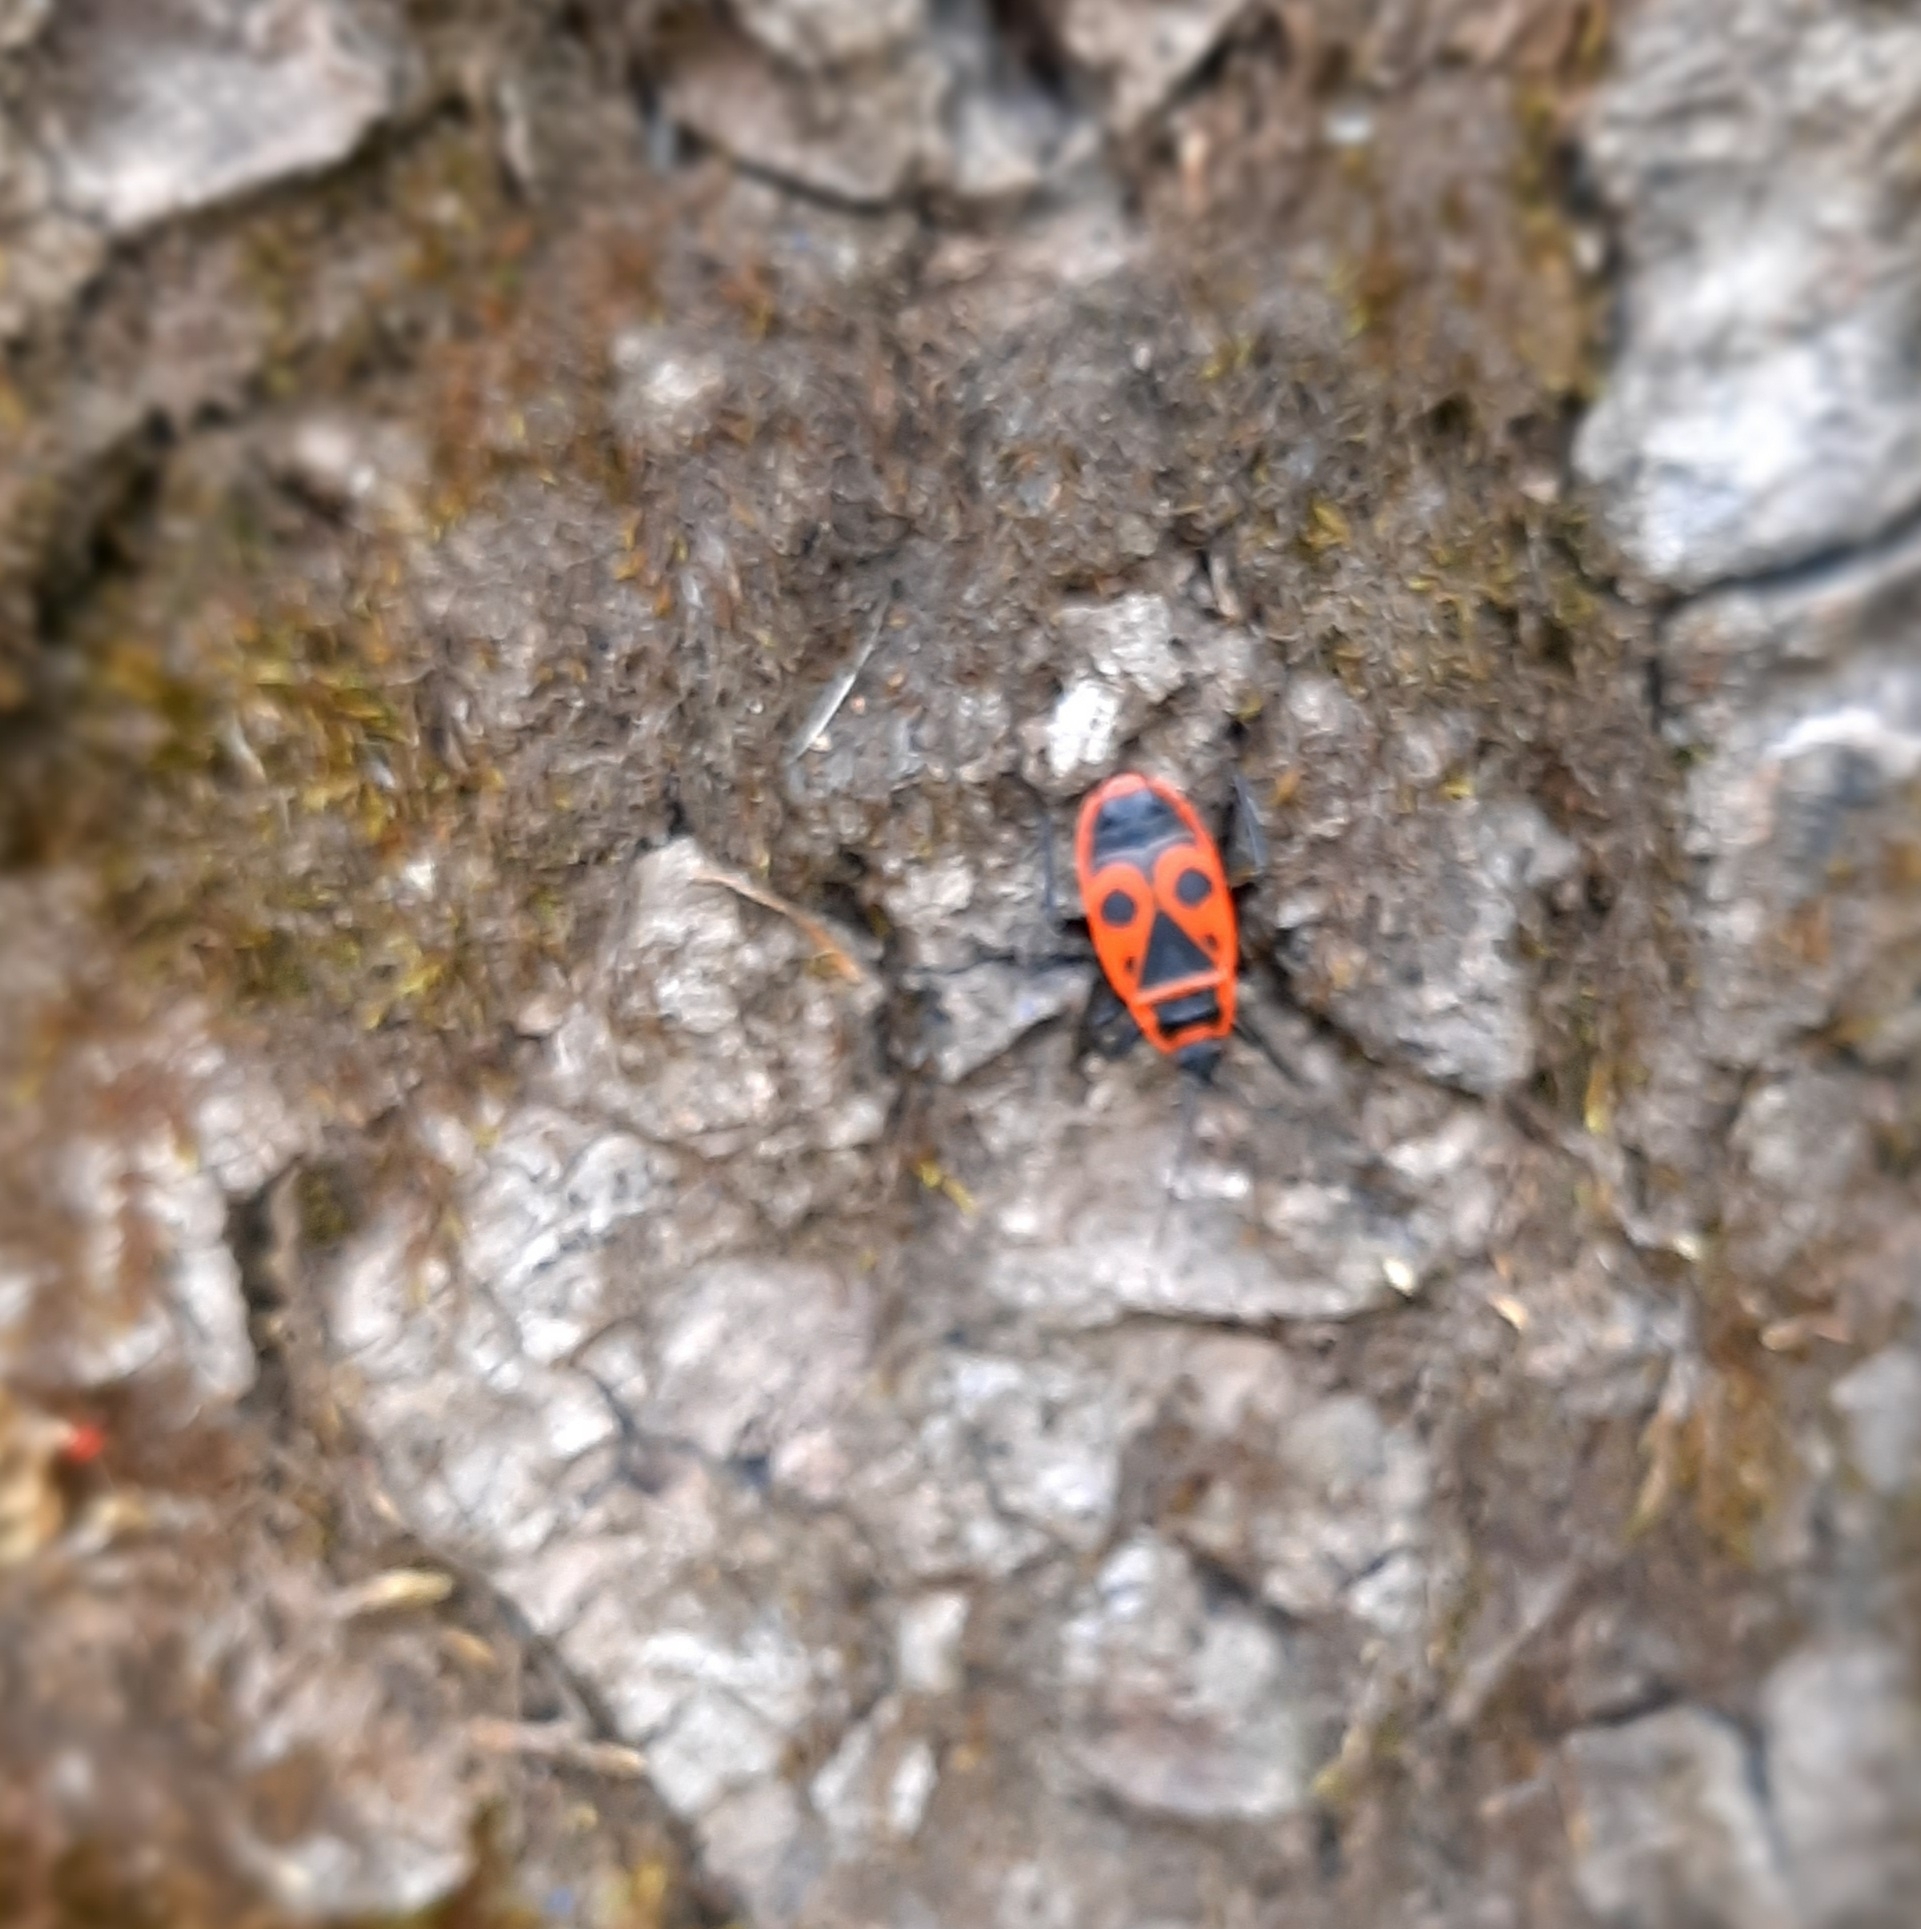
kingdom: Animalia
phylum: Arthropoda
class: Insecta
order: Hemiptera
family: Pyrrhocoridae
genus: Pyrrhocoris
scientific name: Pyrrhocoris apterus
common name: Firebug
